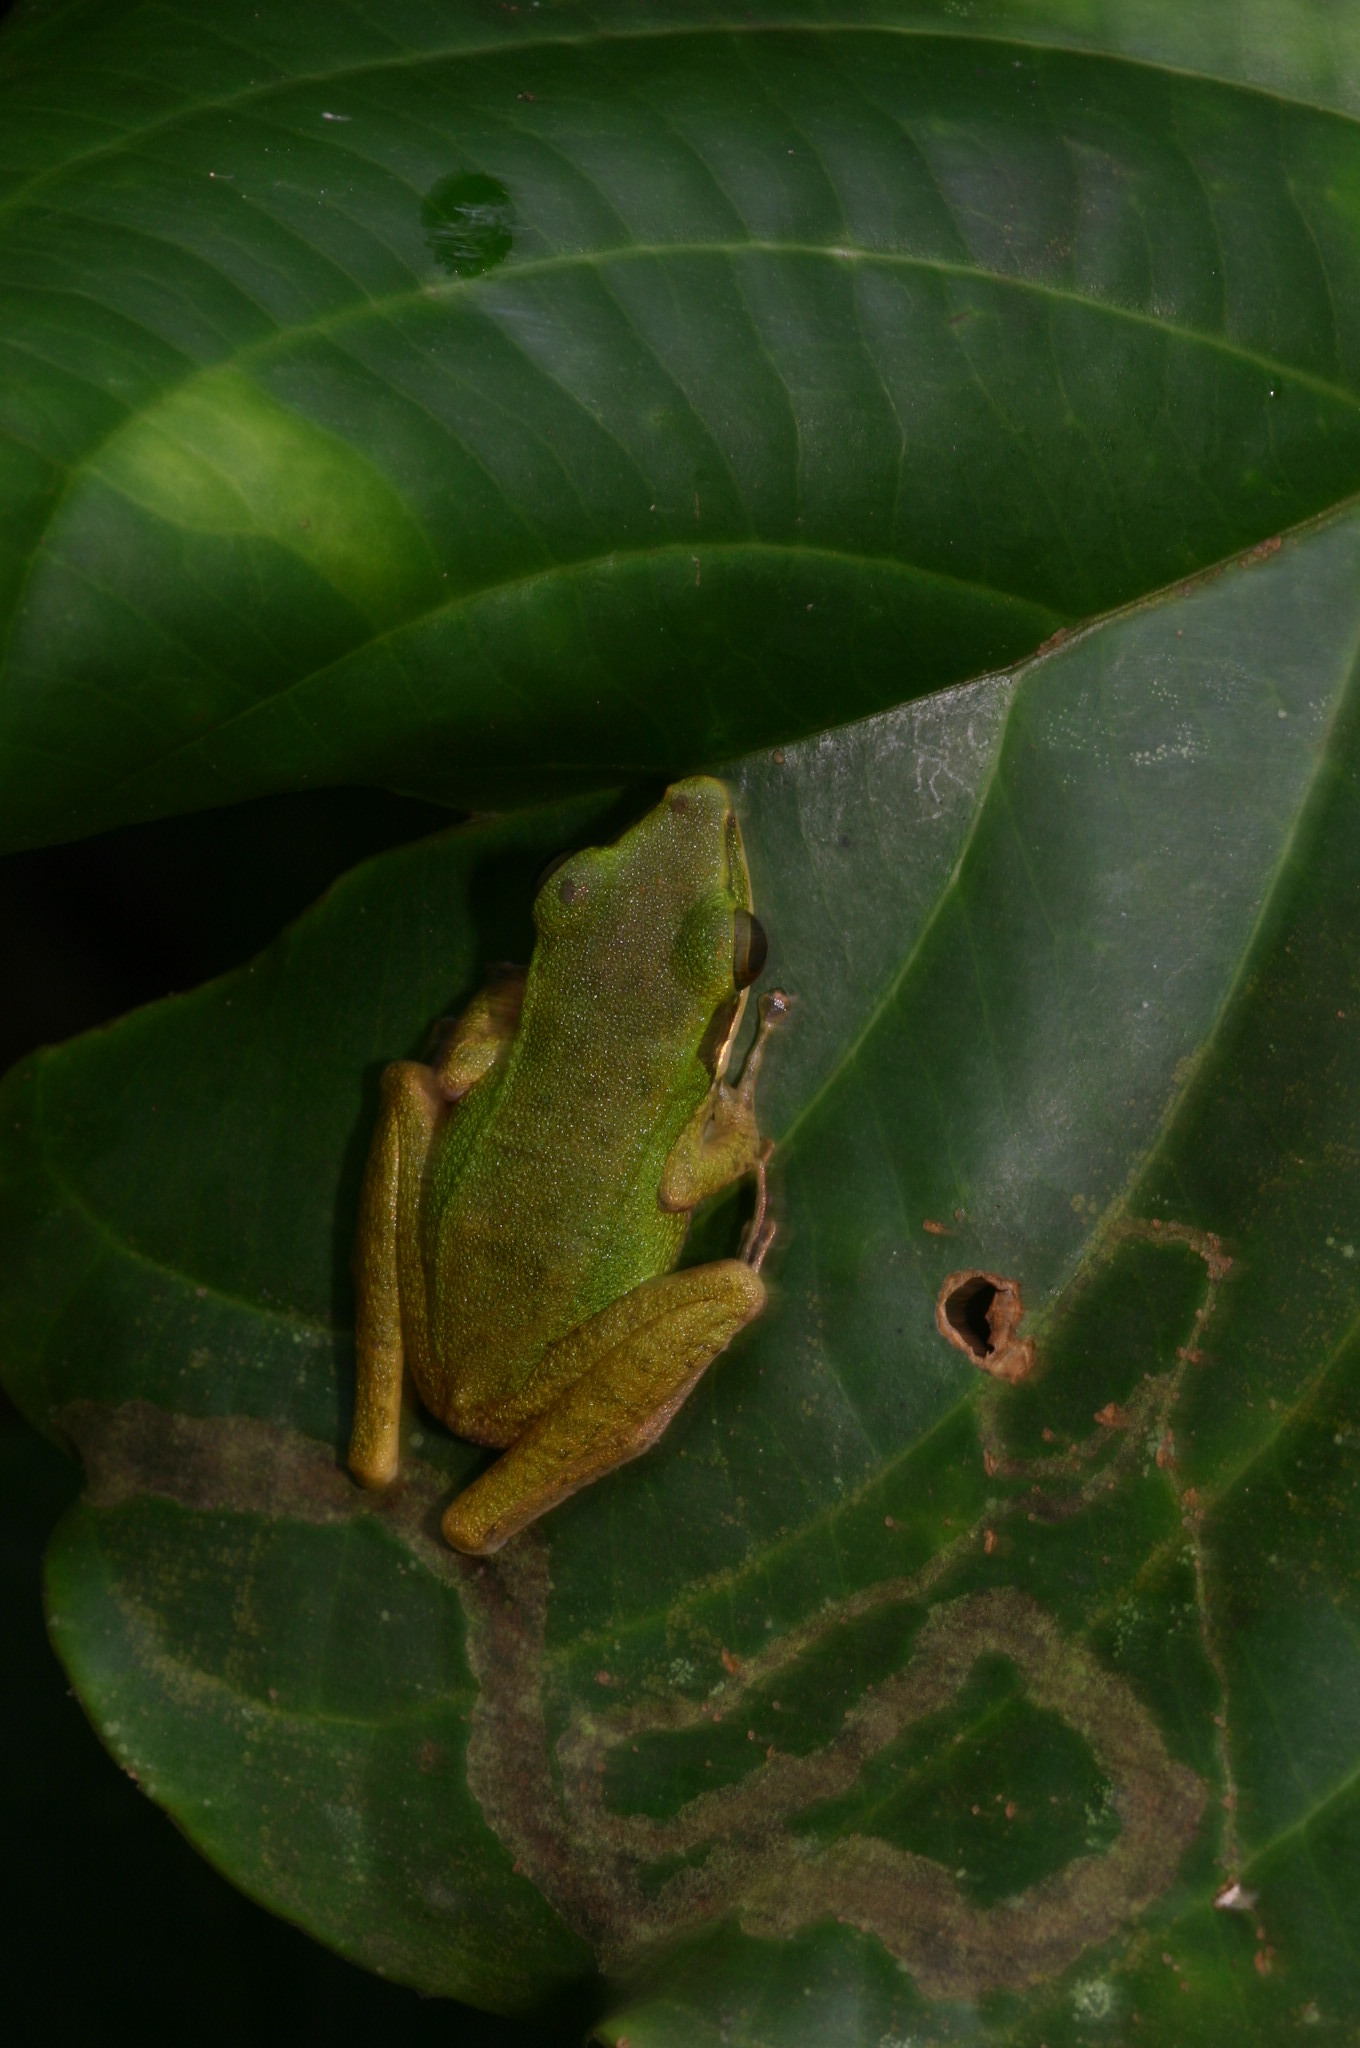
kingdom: Animalia
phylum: Chordata
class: Amphibia
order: Anura
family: Ranidae
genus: Chalcorana
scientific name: Chalcorana labialis
